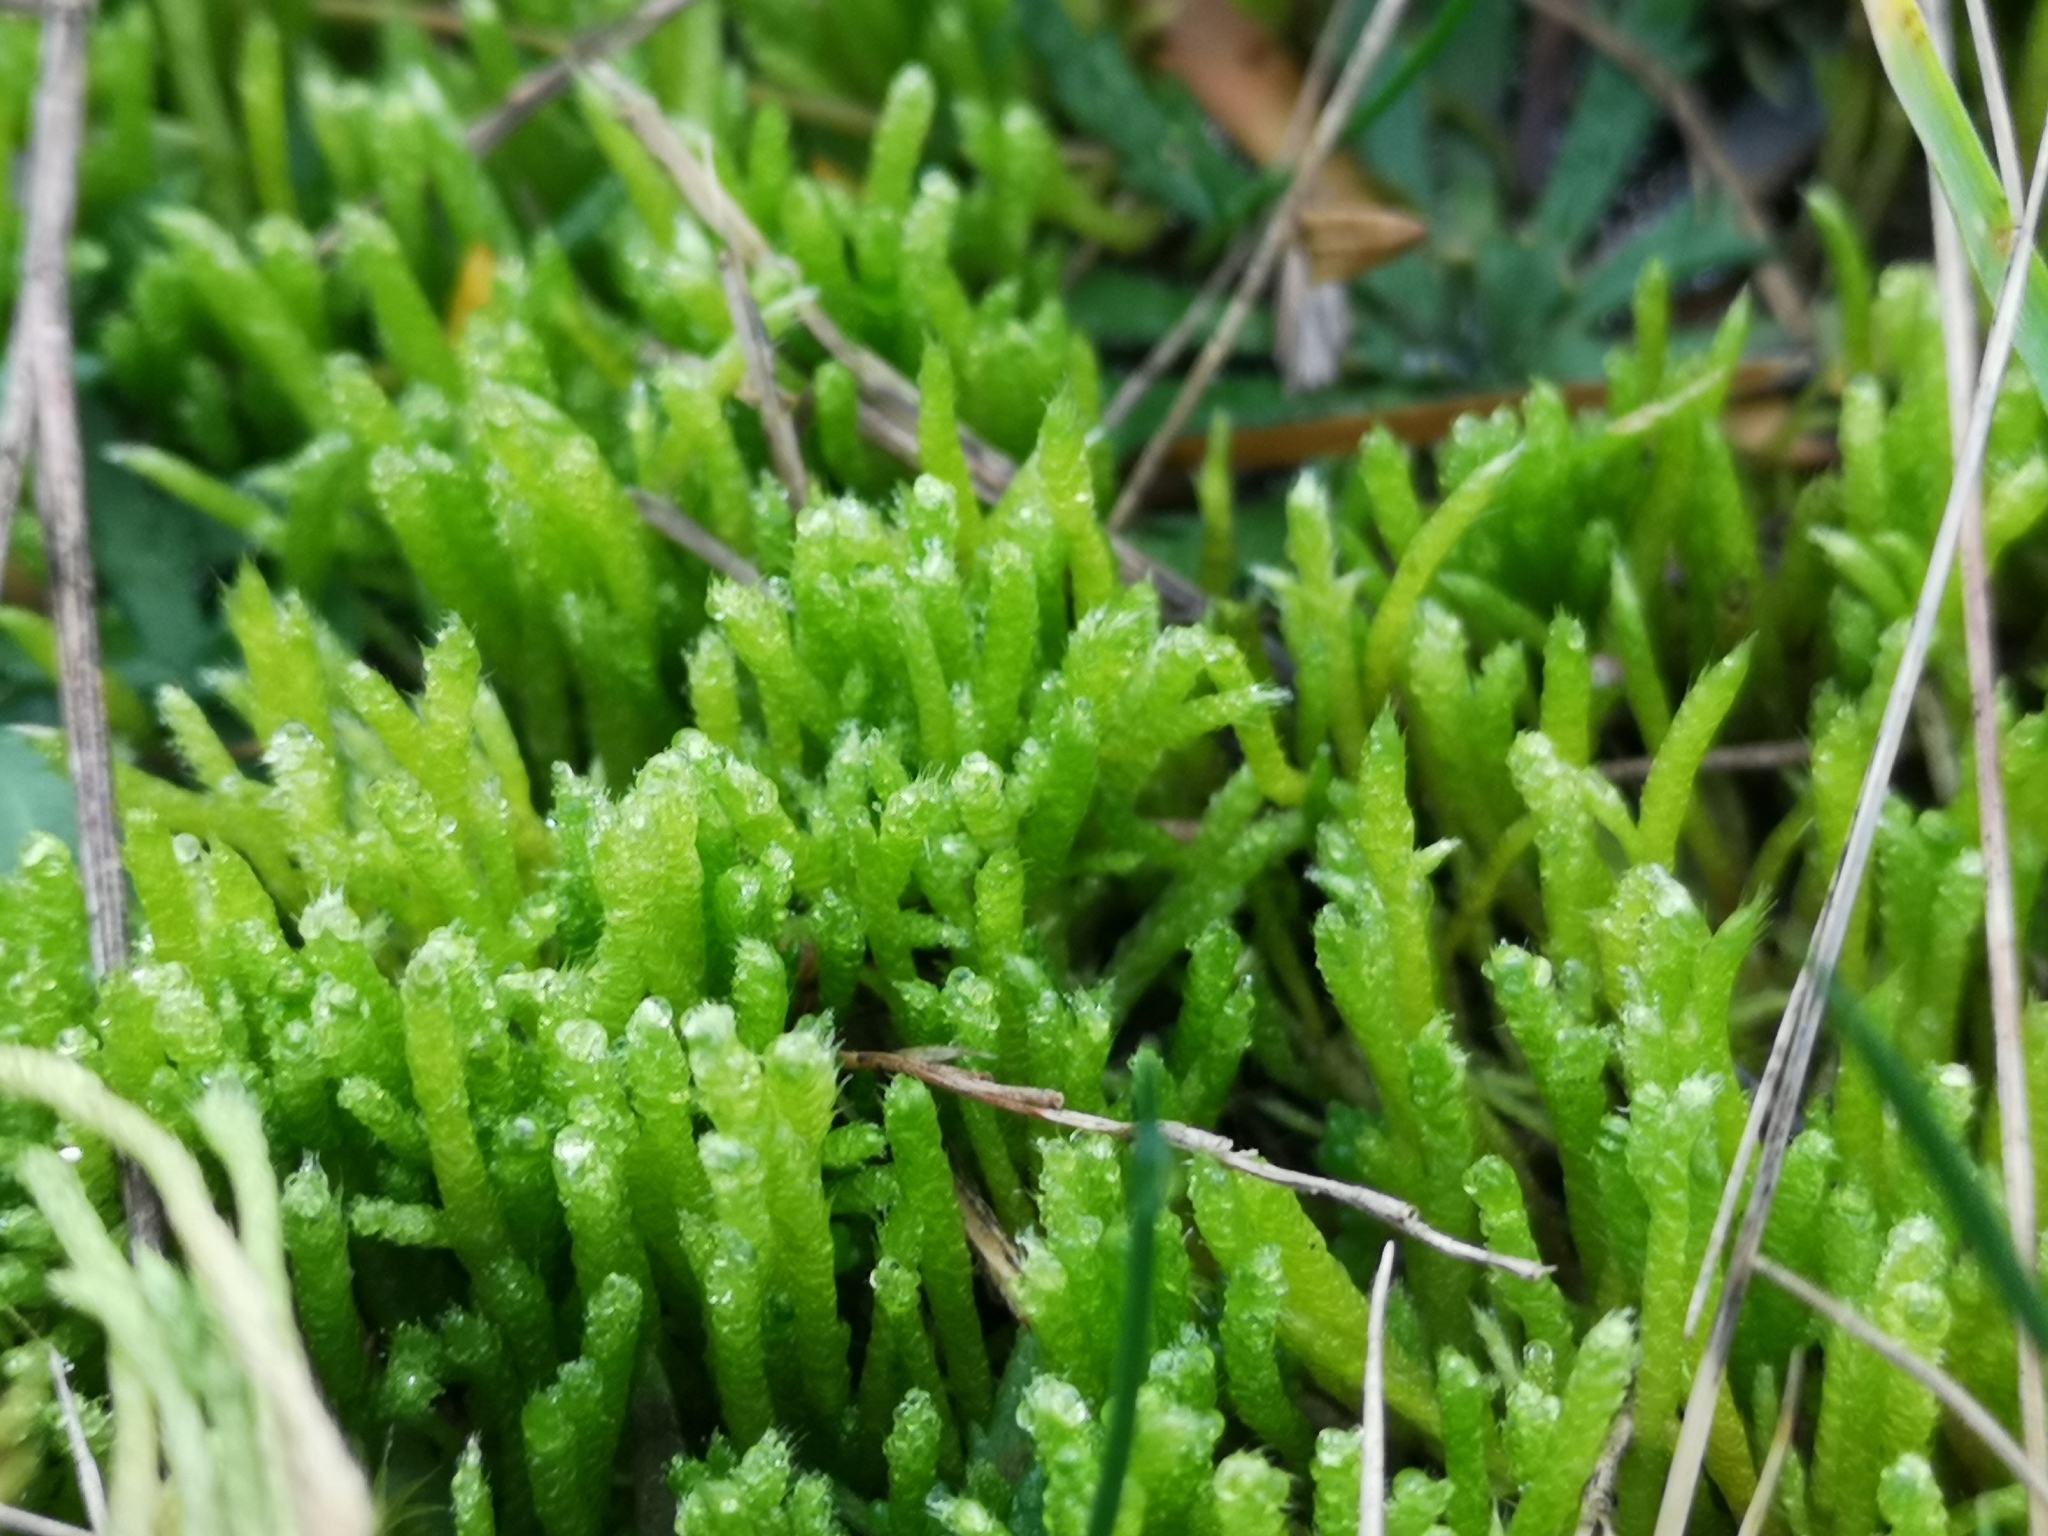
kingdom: Plantae
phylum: Bryophyta
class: Bryopsida
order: Hypnales
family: Brachytheciaceae
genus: Brachythecium
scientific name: Brachythecium albicans
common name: Whitish ragged moss
